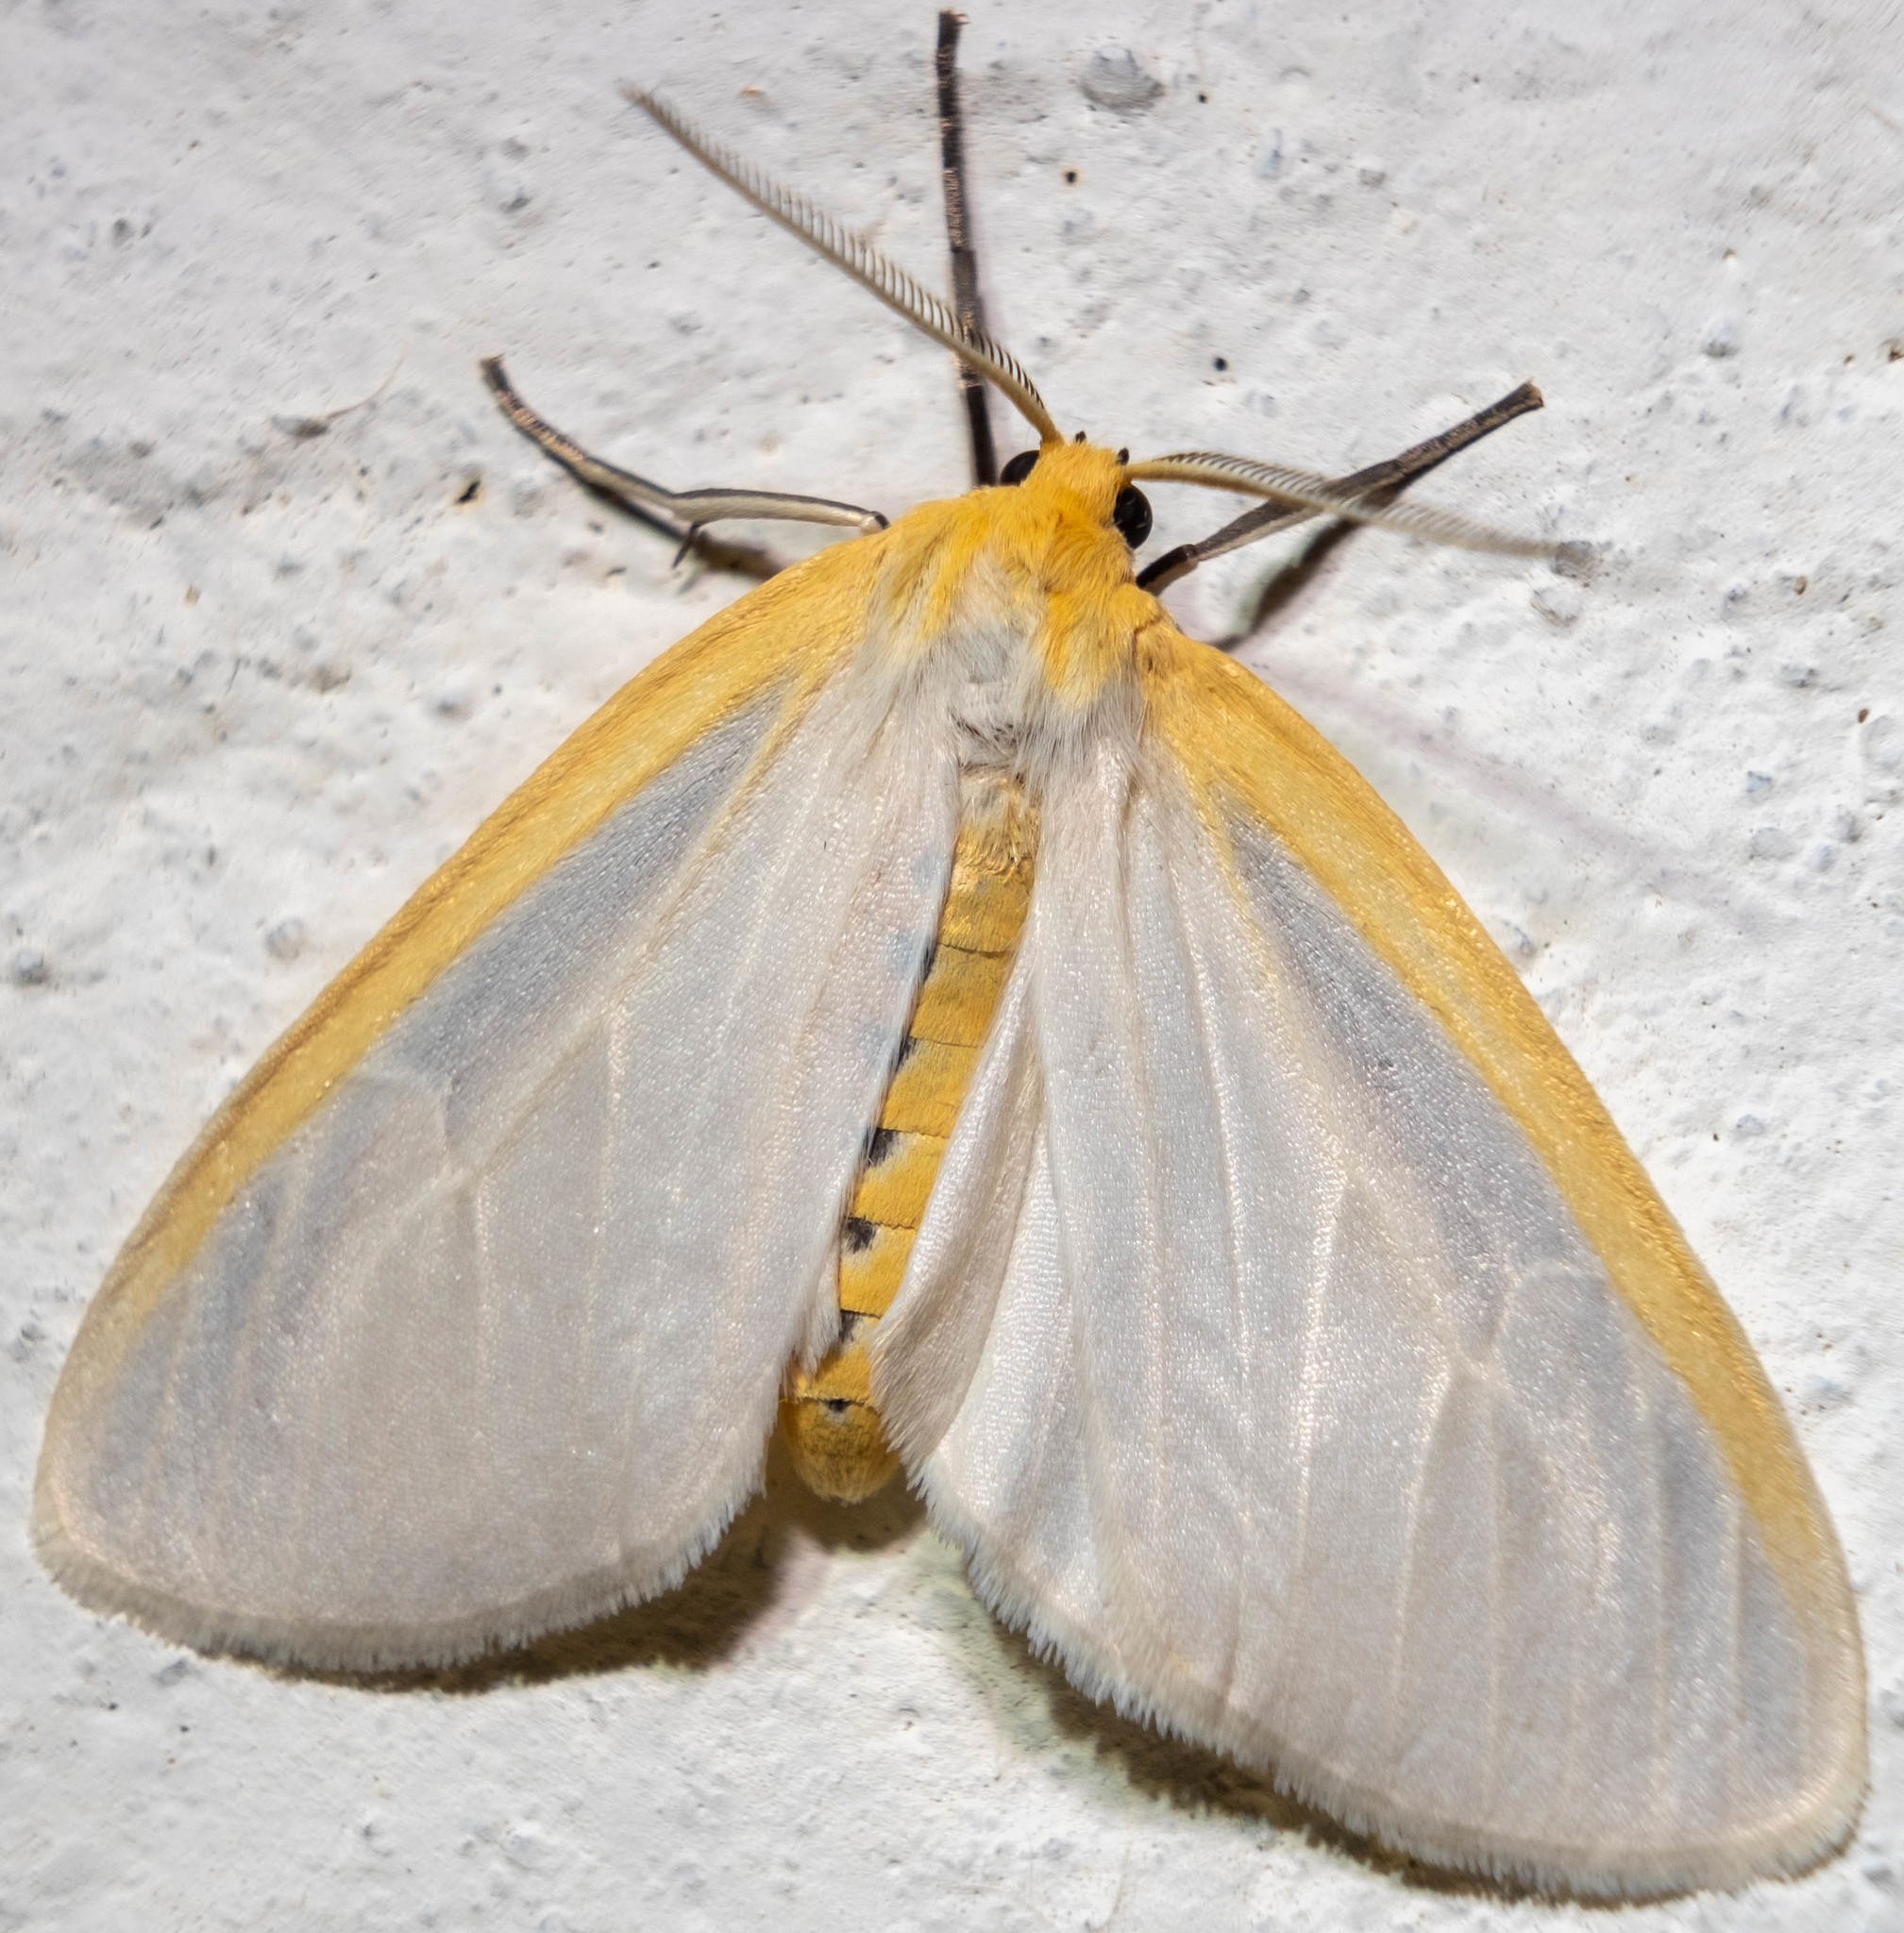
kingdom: Animalia
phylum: Arthropoda
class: Insecta
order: Lepidoptera
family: Erebidae
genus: Cycnia
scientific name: Cycnia tenera
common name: Delicate cycnia moth
